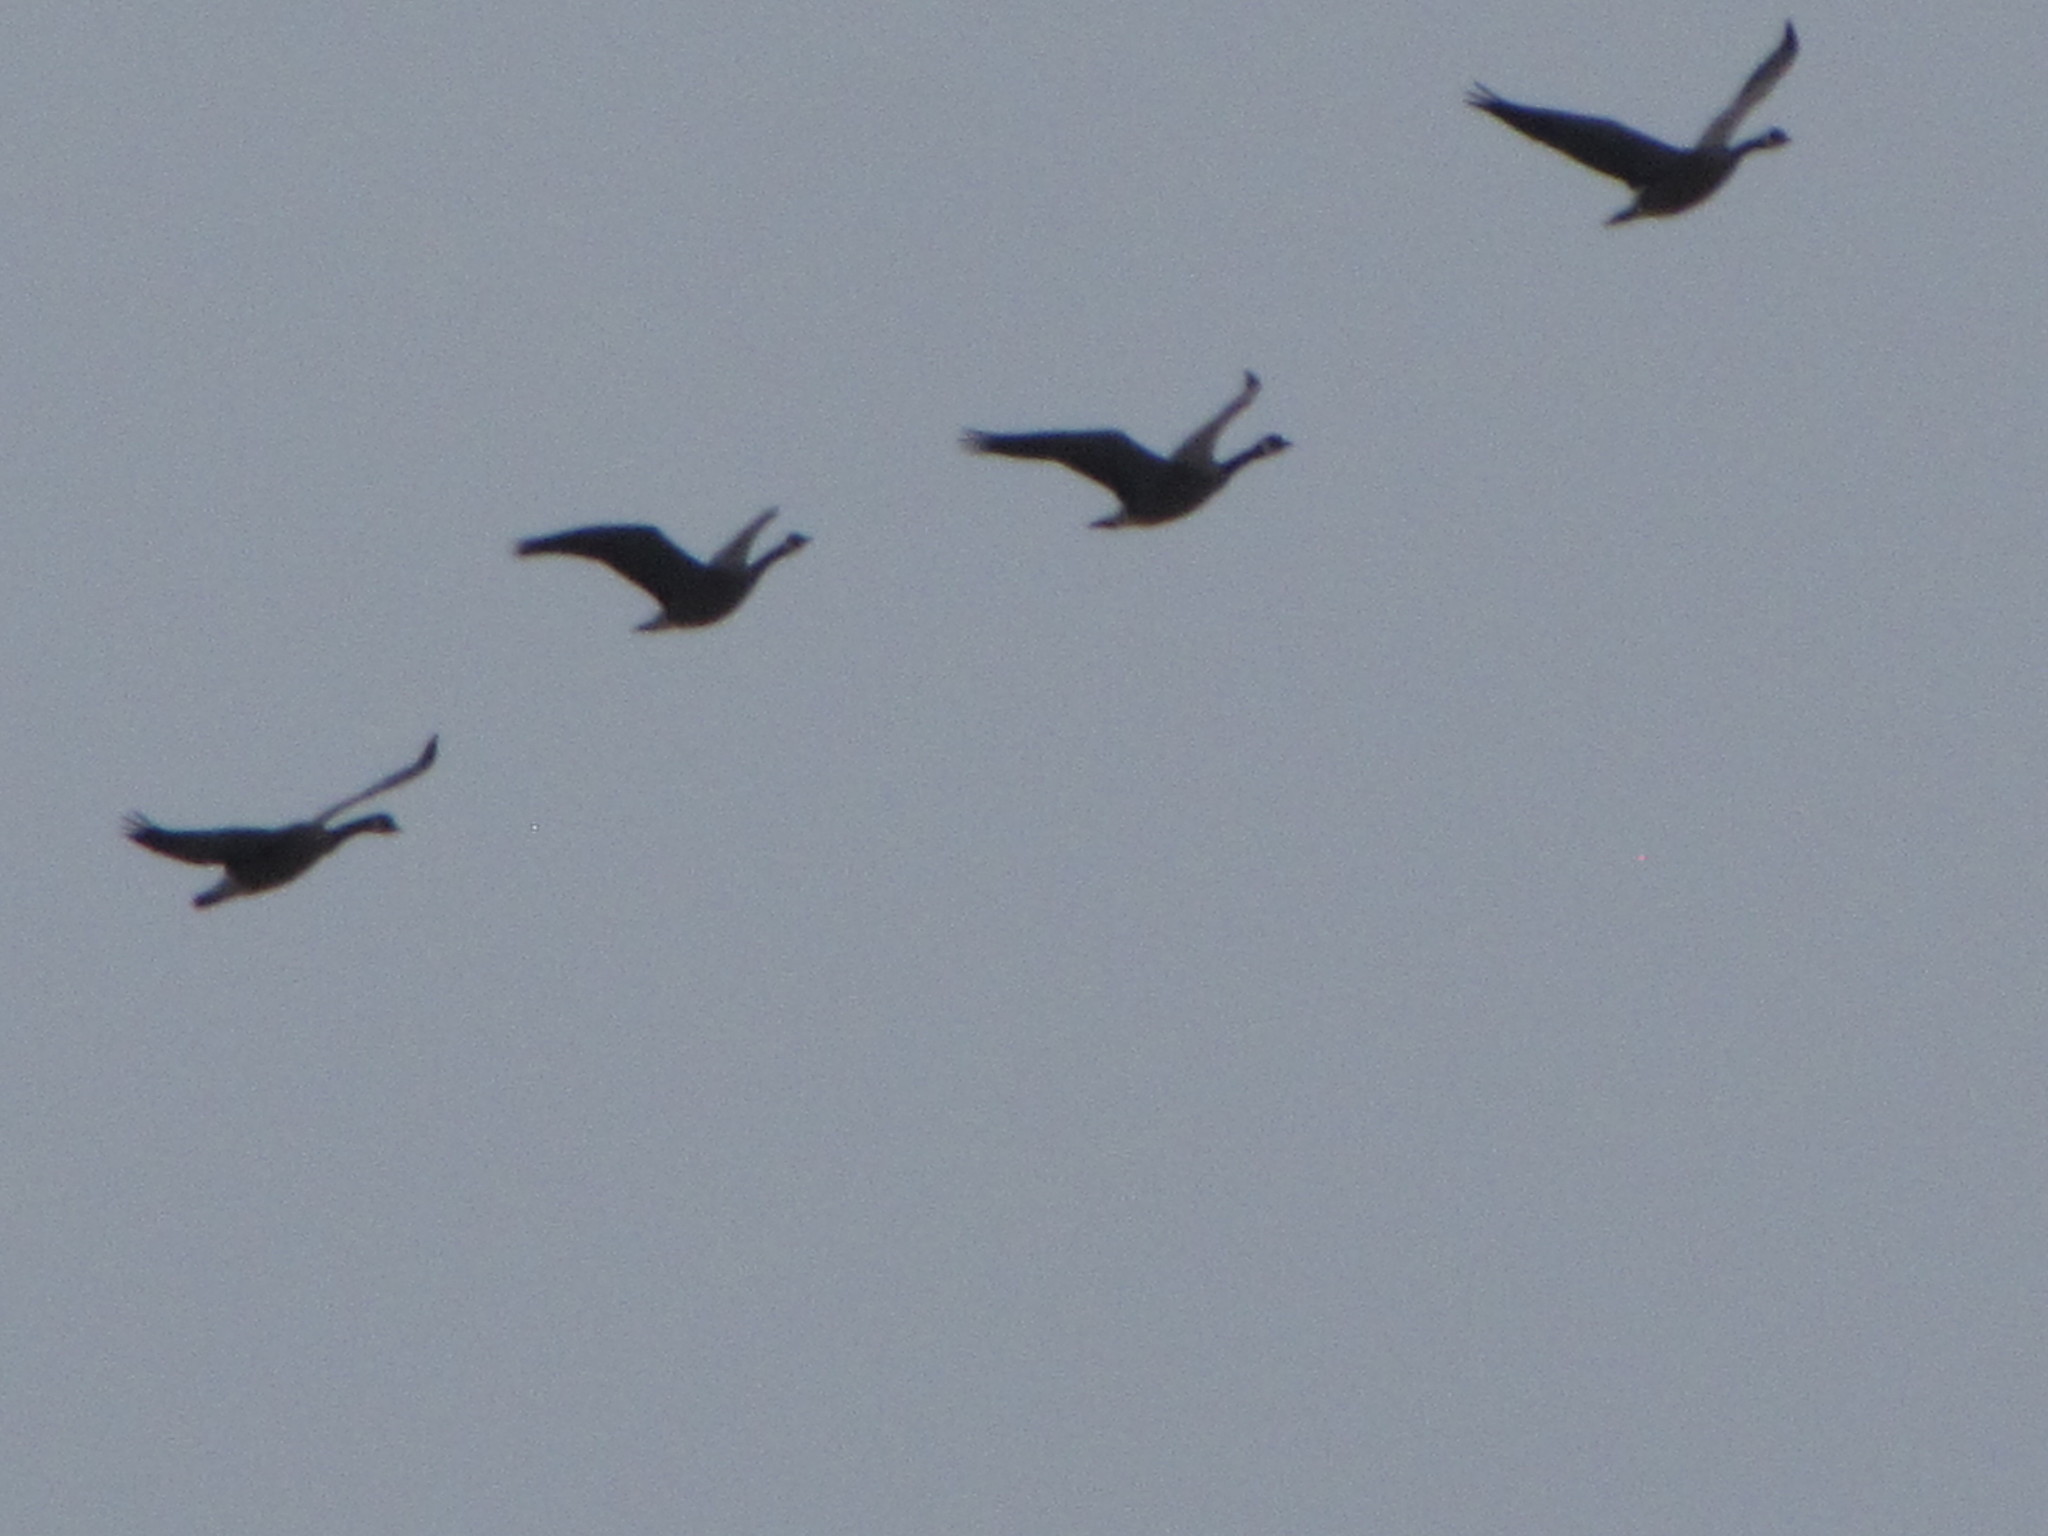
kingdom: Animalia
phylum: Chordata
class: Aves
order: Anseriformes
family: Anatidae
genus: Branta
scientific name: Branta canadensis
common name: Canada goose
